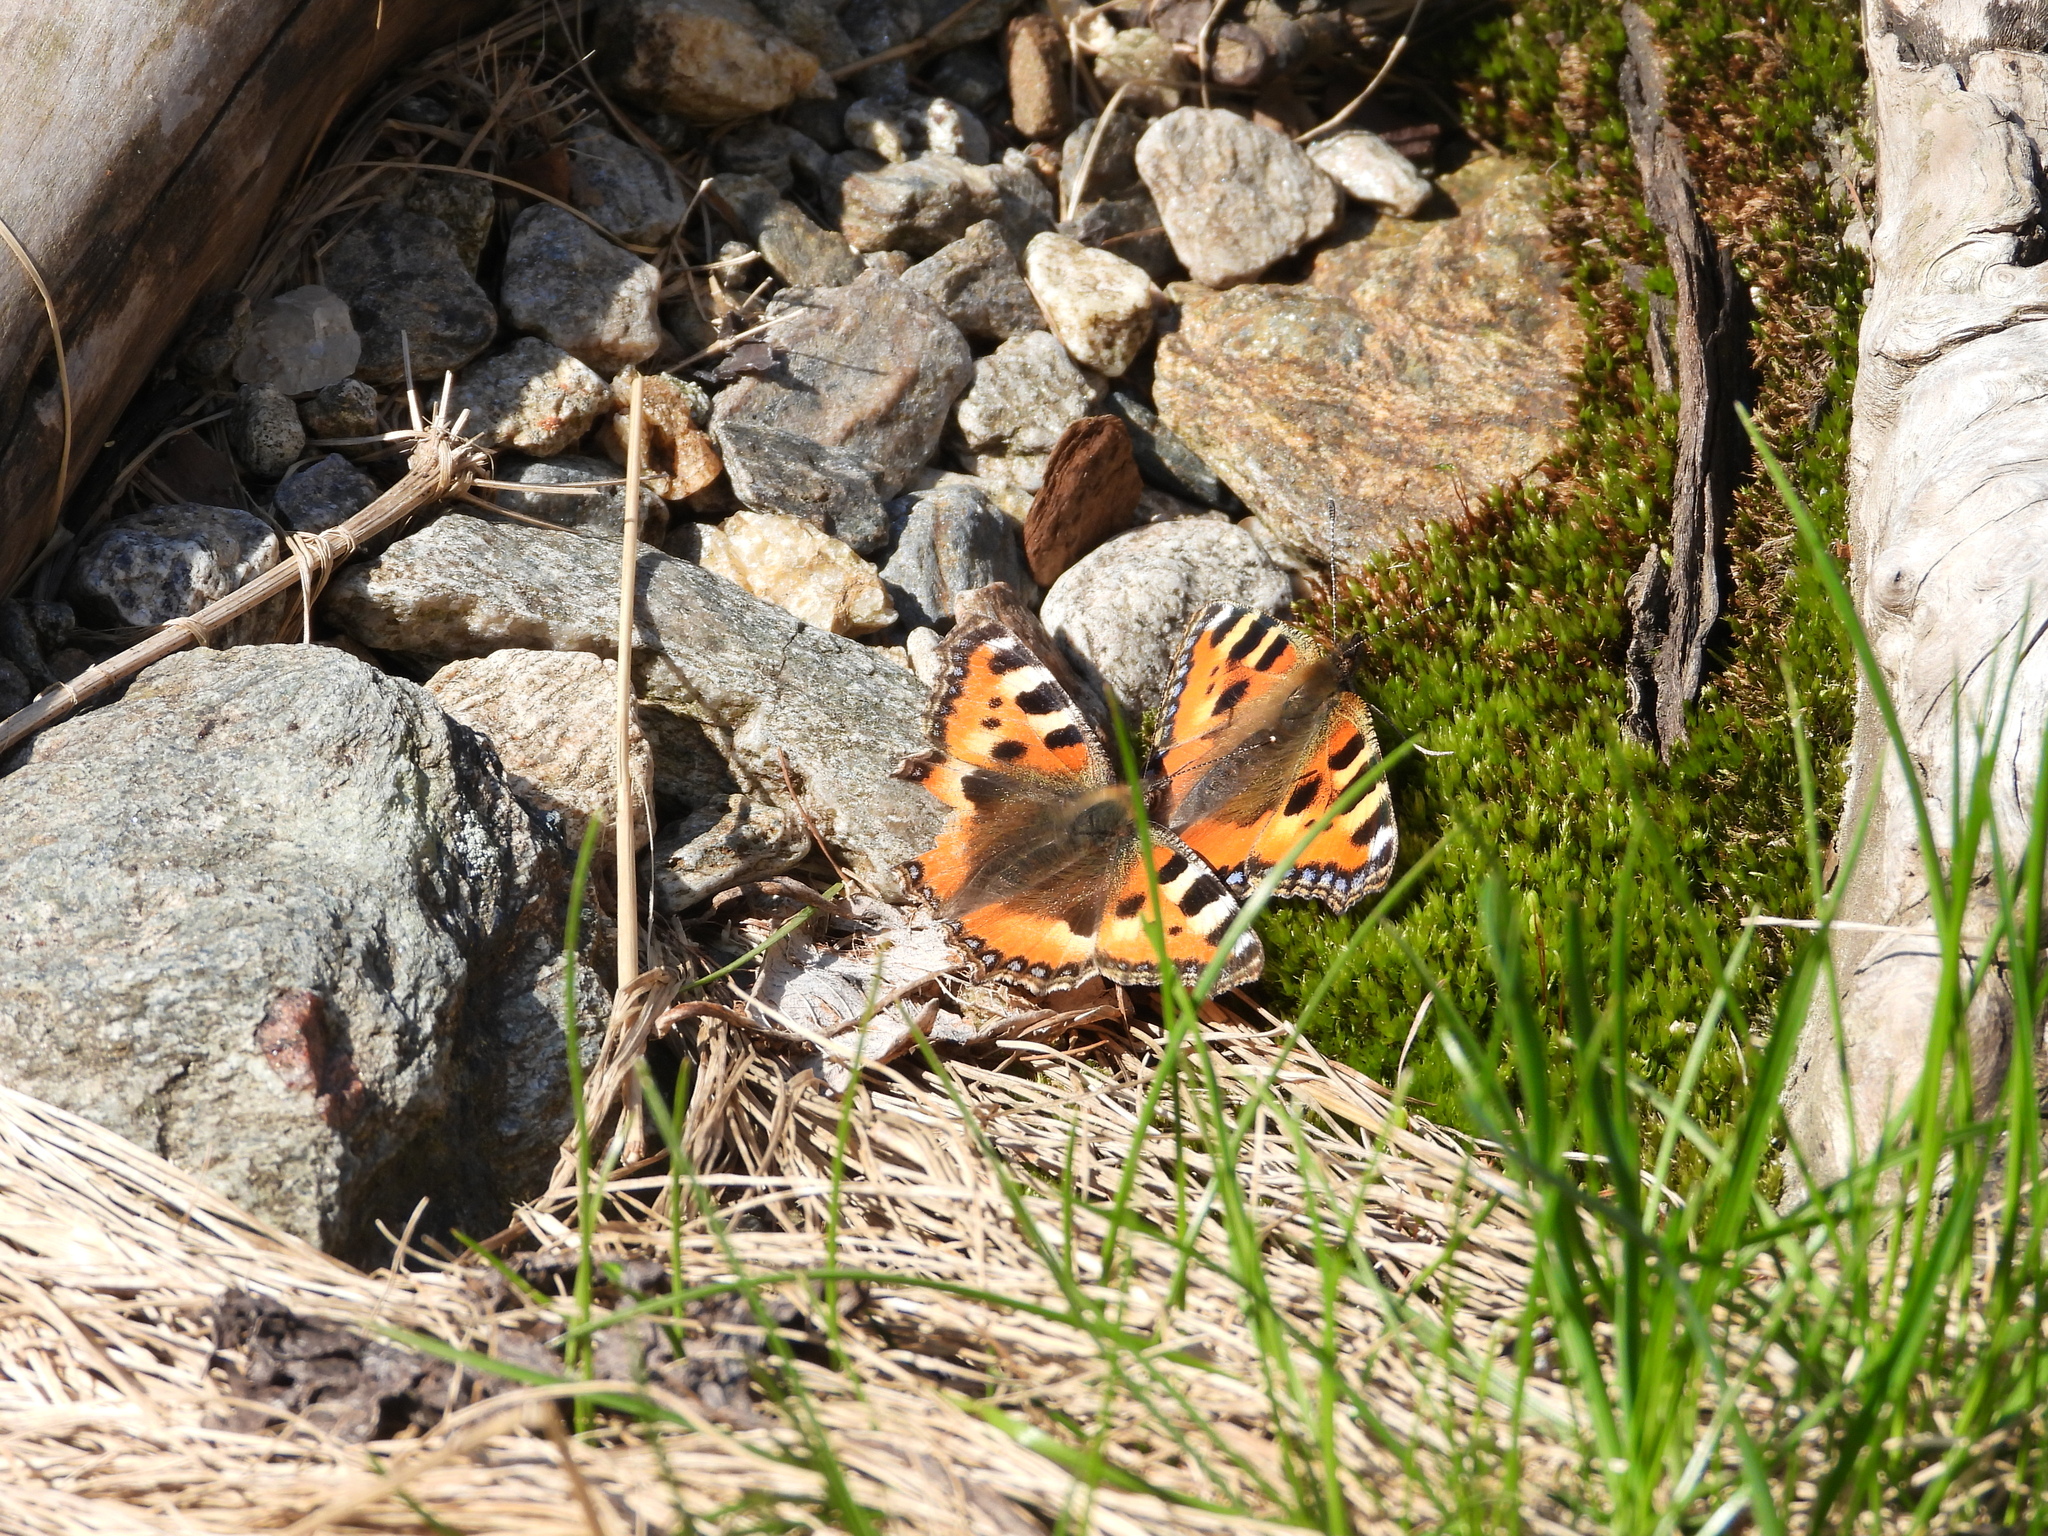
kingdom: Animalia
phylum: Arthropoda
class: Insecta
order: Lepidoptera
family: Nymphalidae
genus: Aglais
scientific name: Aglais urticae
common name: Small tortoiseshell
